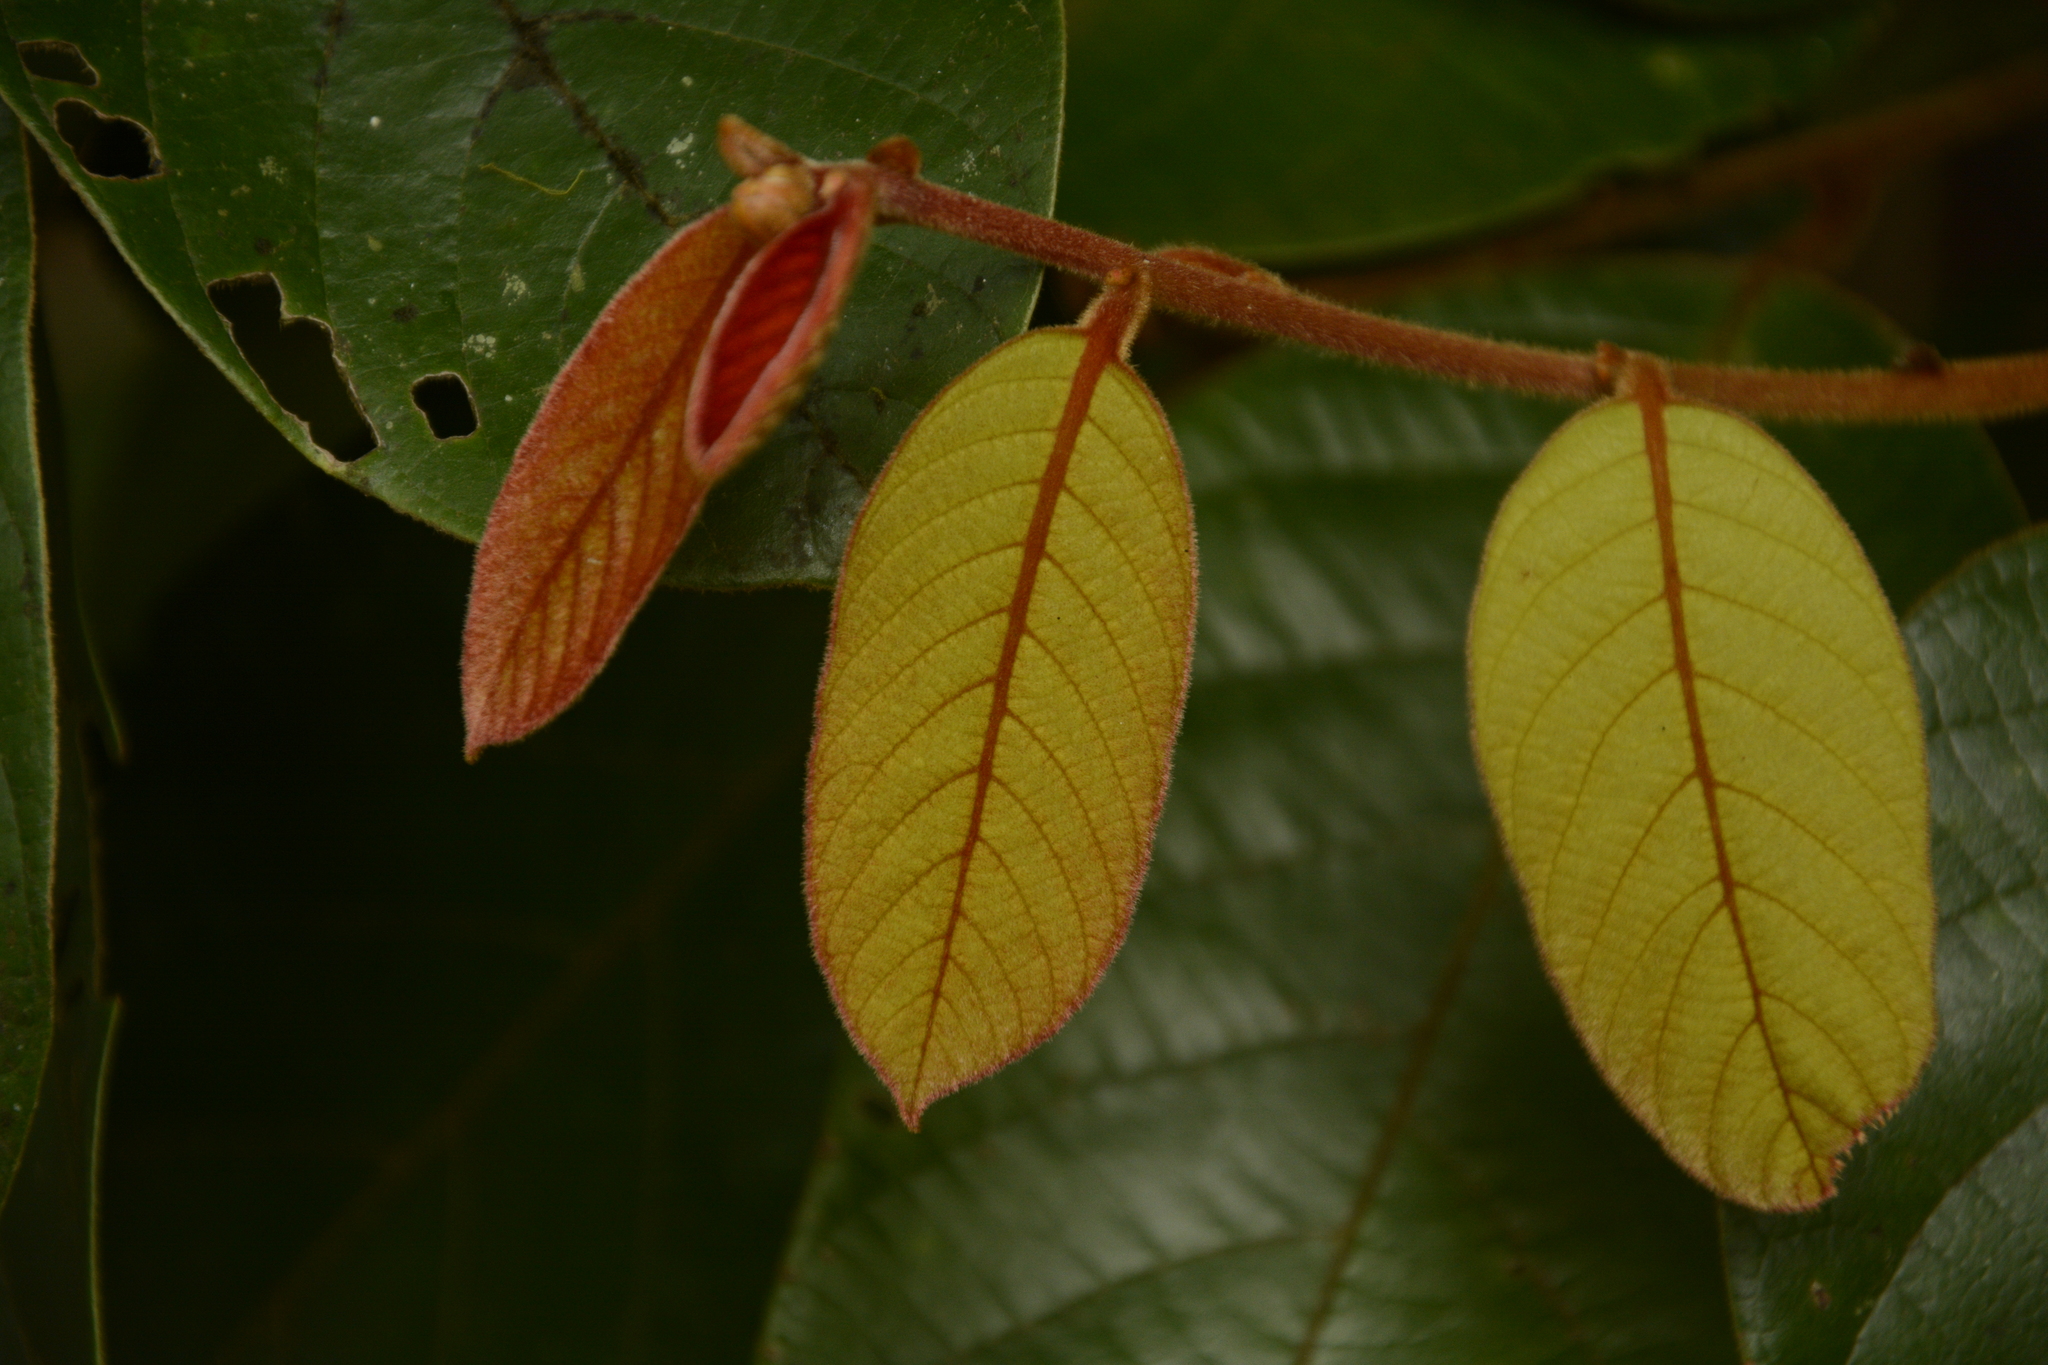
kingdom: Plantae
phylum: Tracheophyta
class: Magnoliopsida
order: Laurales
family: Lauraceae
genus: Cryptocarya
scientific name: Cryptocarya anamalayana
